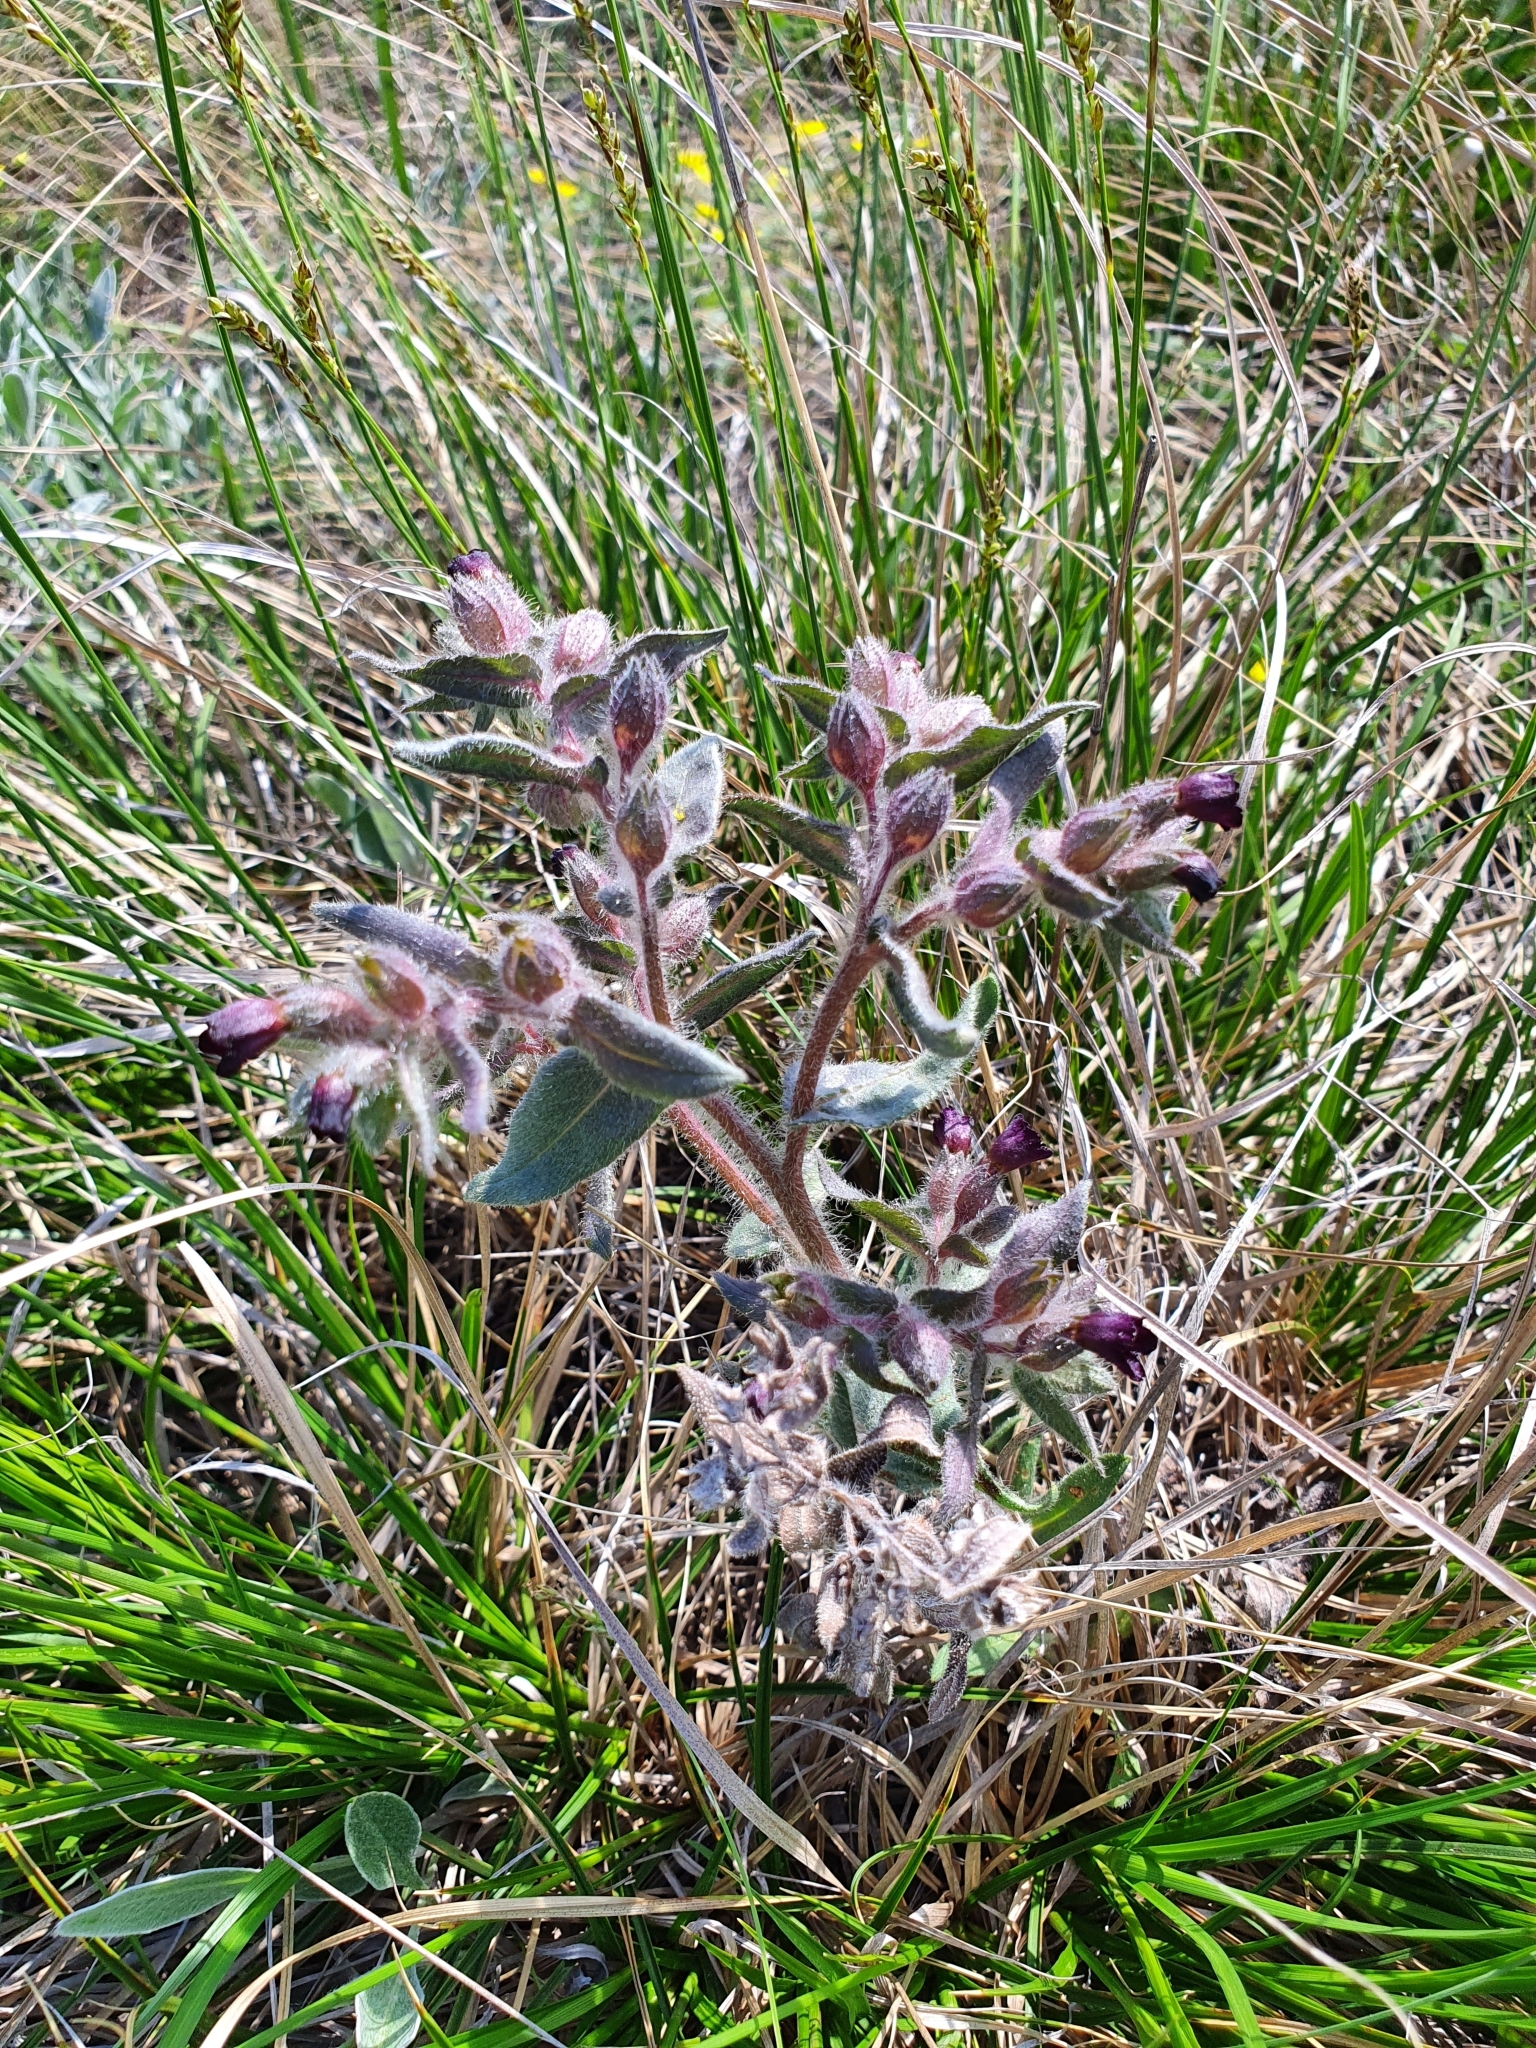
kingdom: Plantae
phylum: Tracheophyta
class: Magnoliopsida
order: Boraginales
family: Boraginaceae
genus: Nonea
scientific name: Nonea pulla
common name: Brown nonea
